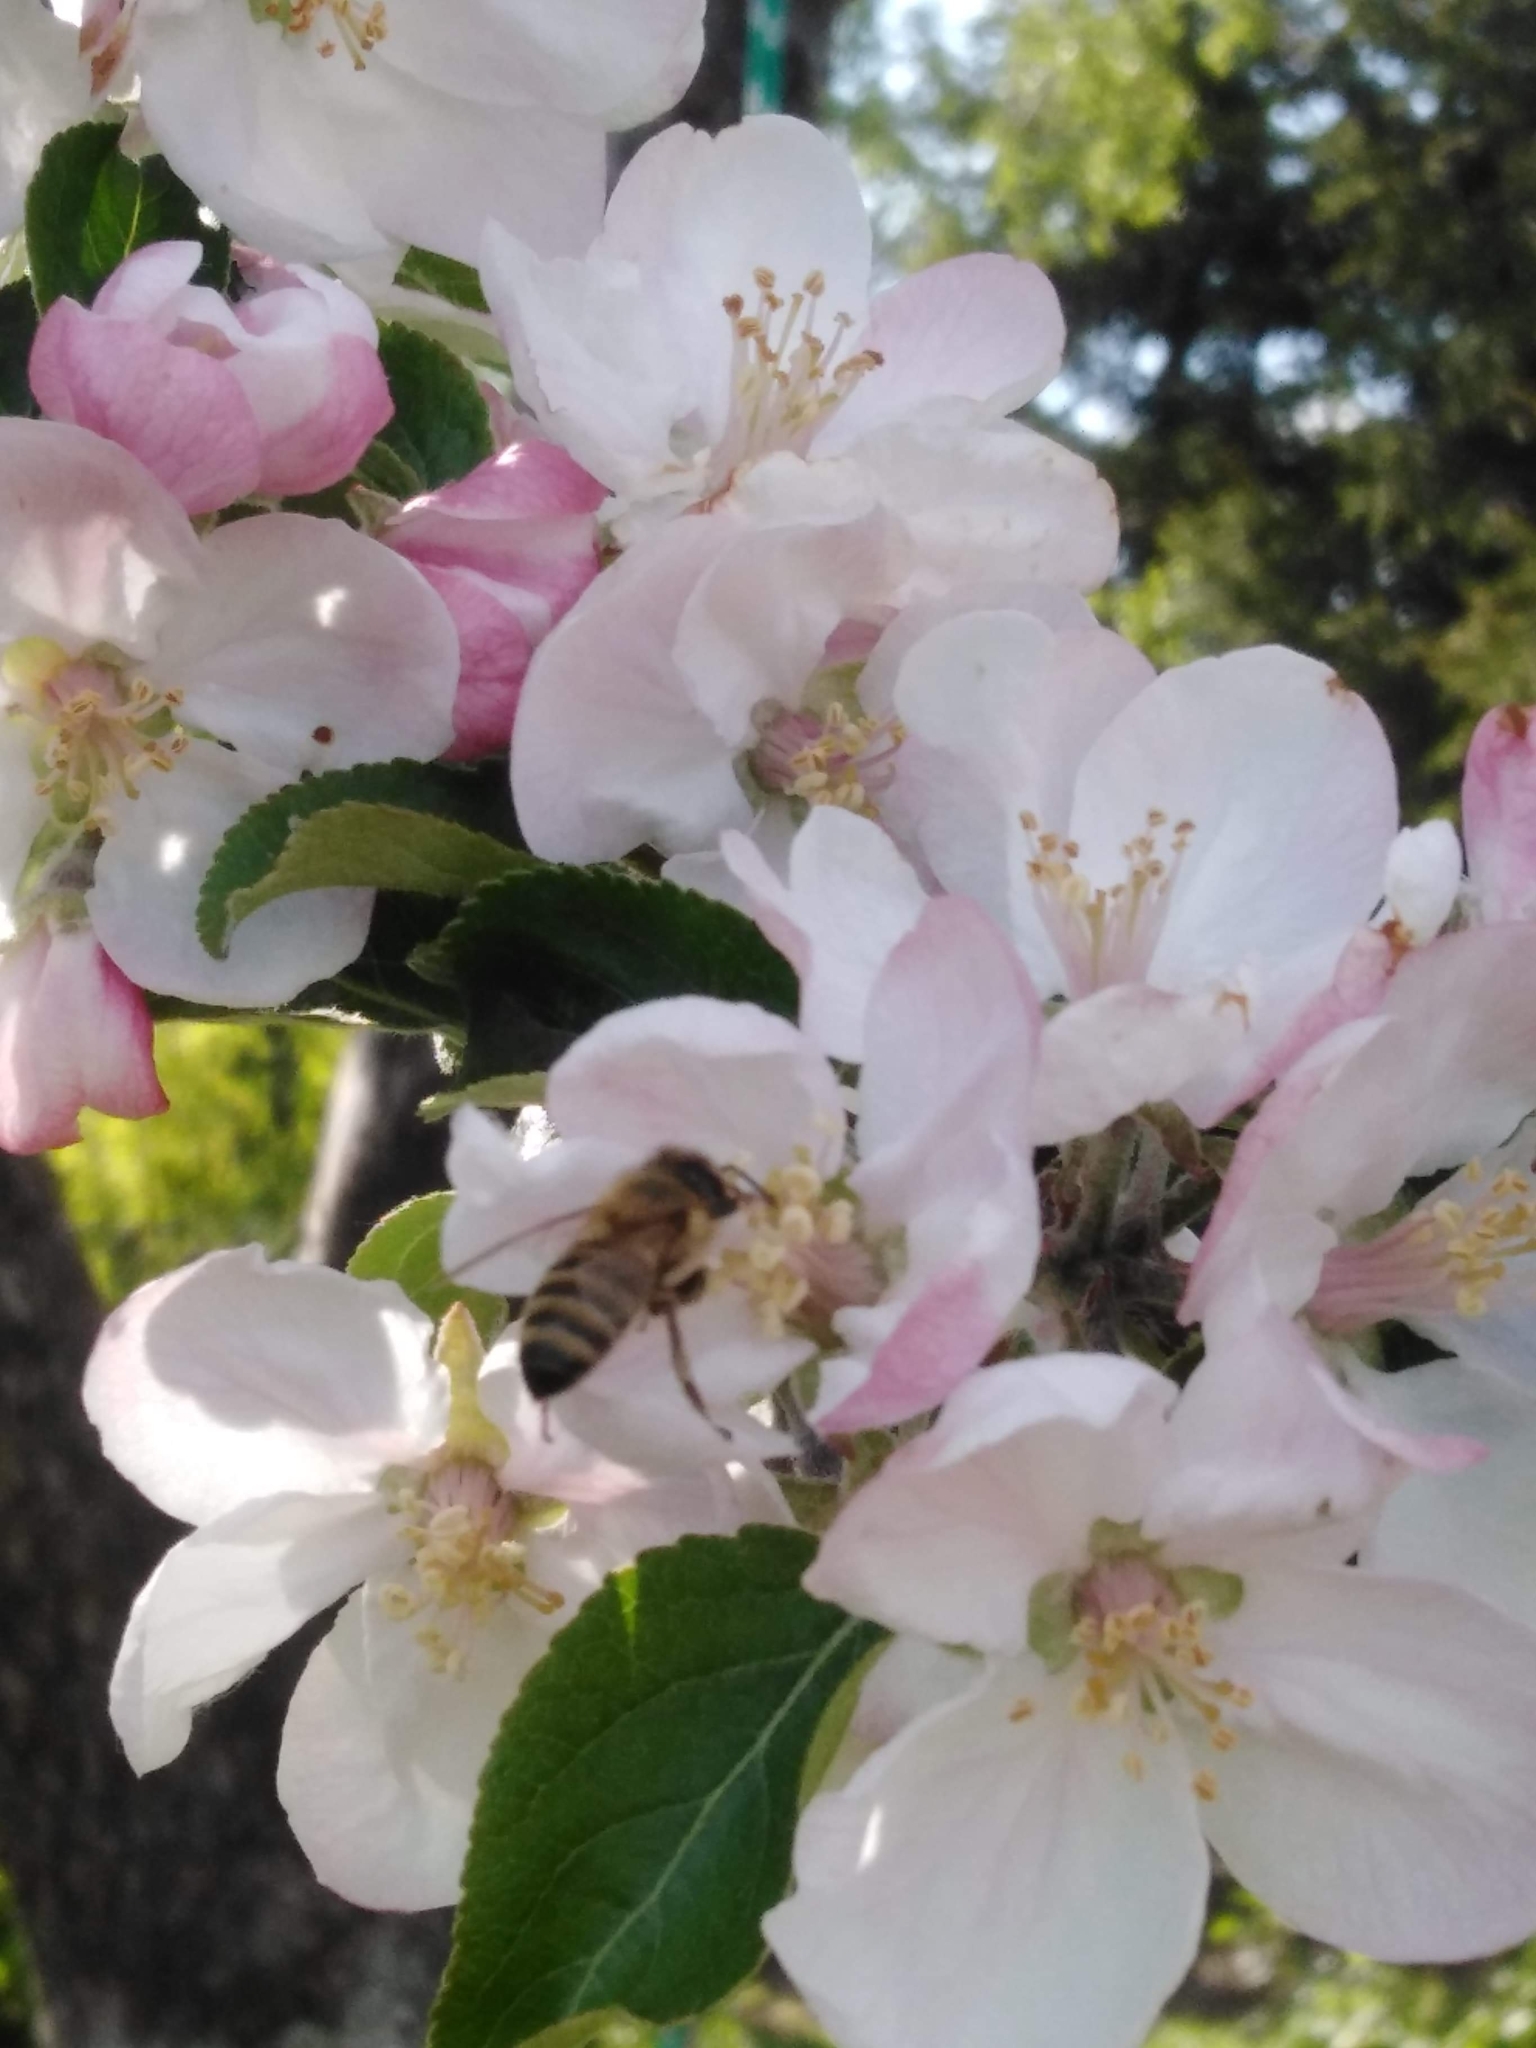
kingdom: Plantae
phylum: Tracheophyta
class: Magnoliopsida
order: Rosales
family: Rosaceae
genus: Malus
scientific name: Malus domestica
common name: Apple
